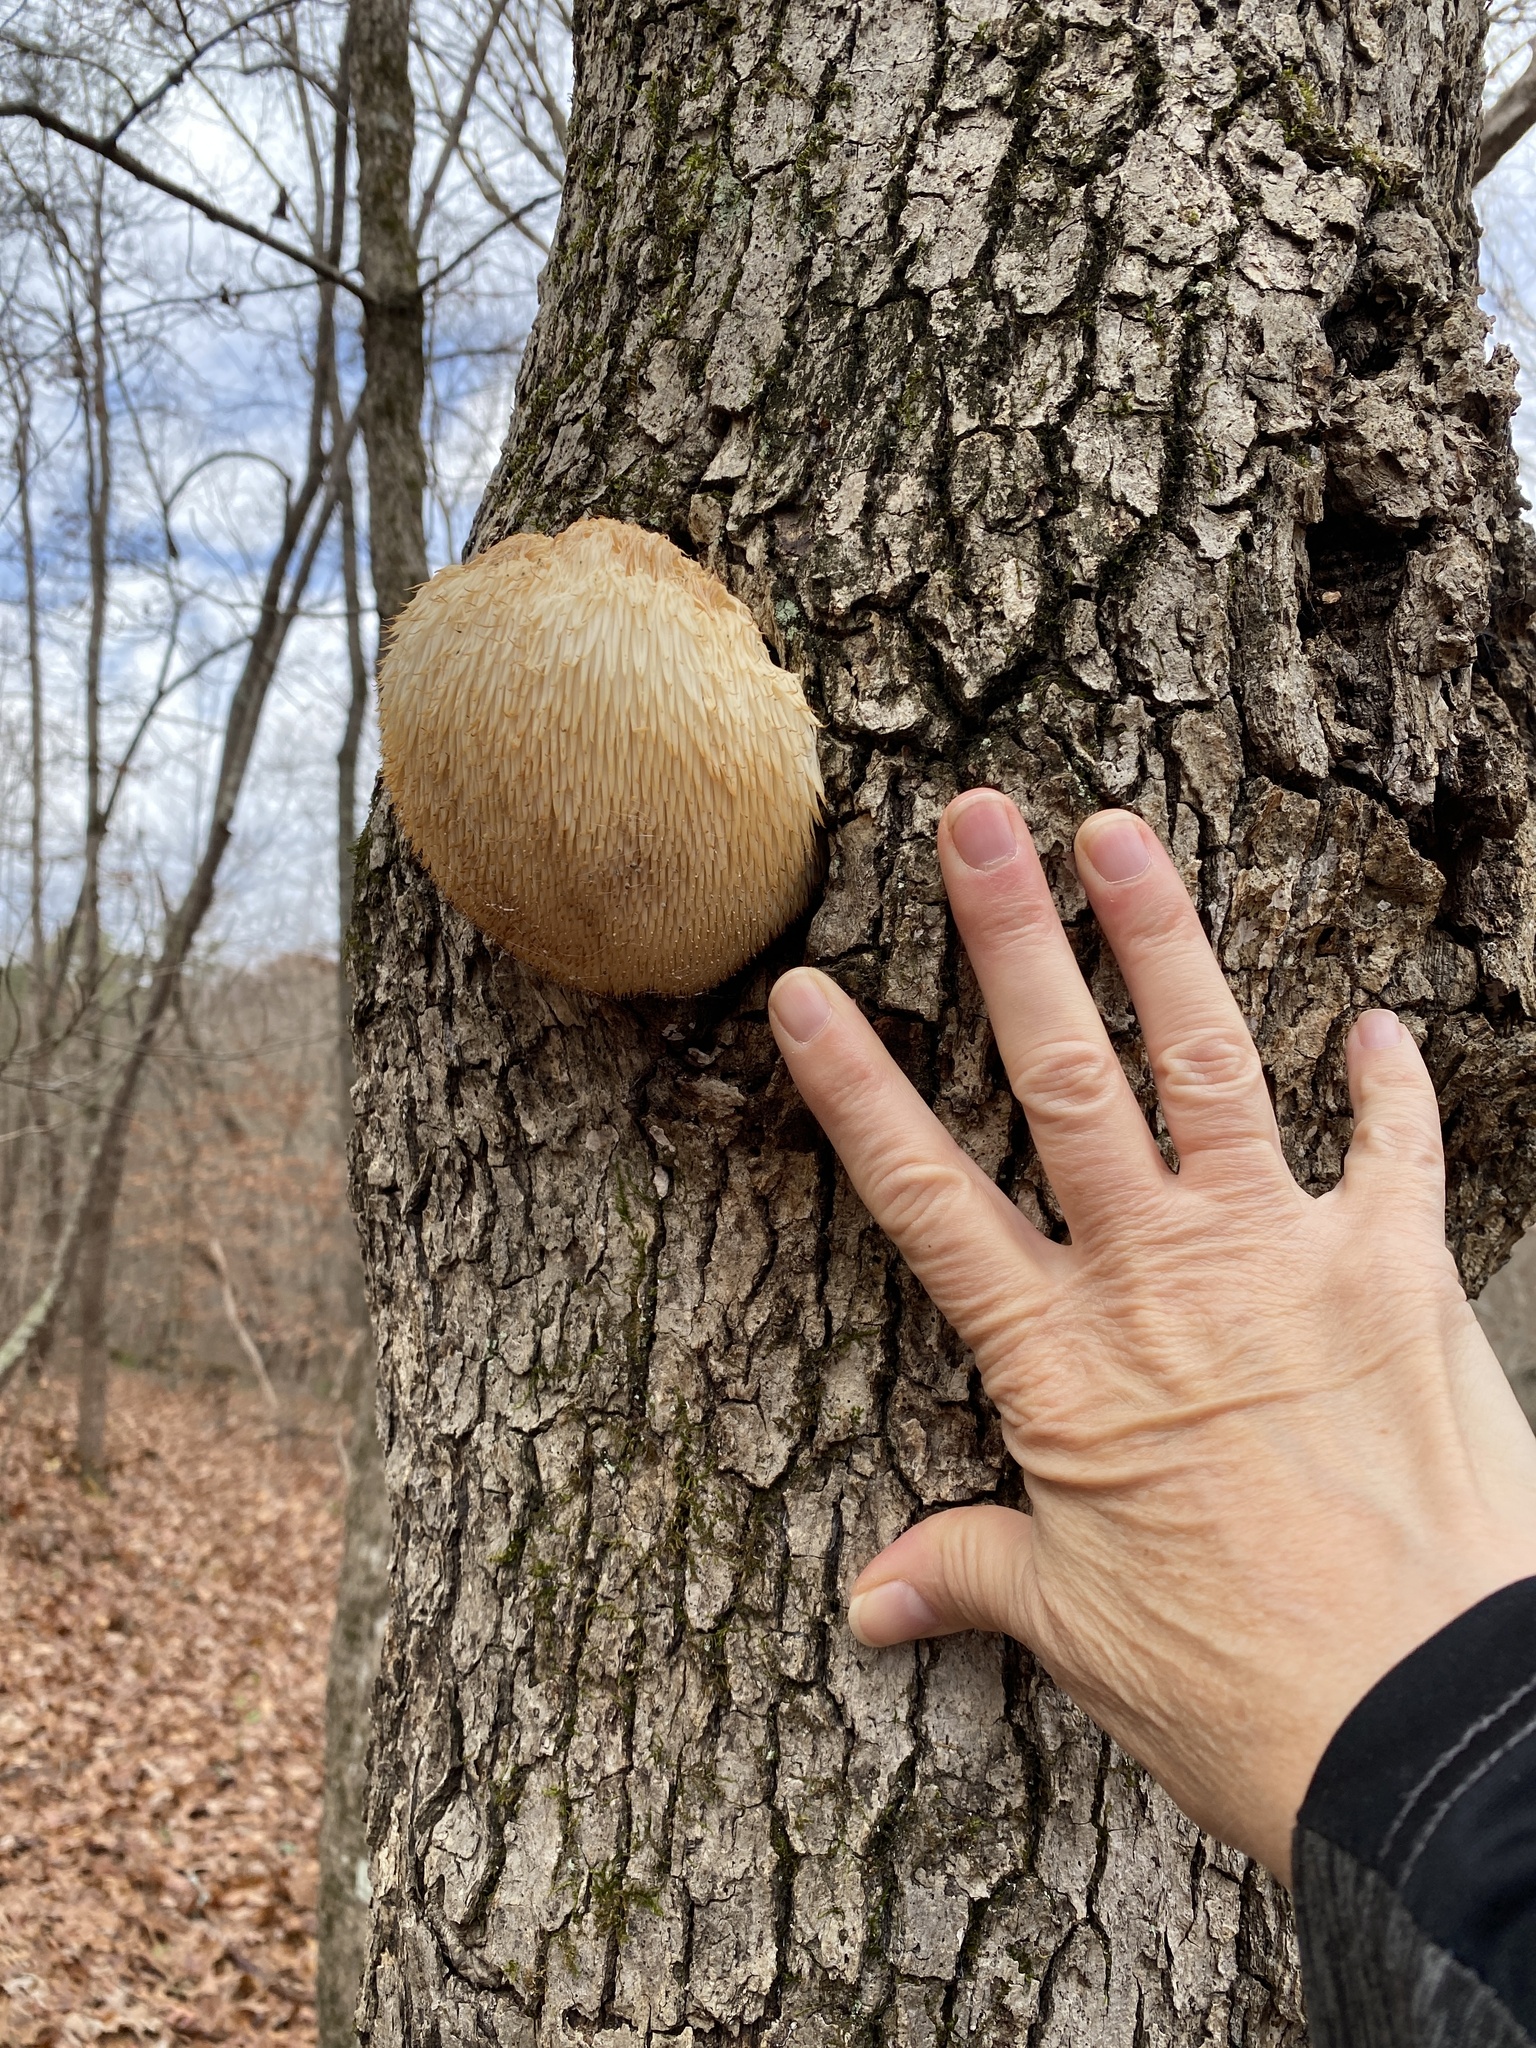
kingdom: Fungi
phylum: Basidiomycota
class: Agaricomycetes
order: Russulales
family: Hericiaceae
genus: Hericium
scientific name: Hericium erinaceus
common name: Bearded tooth
